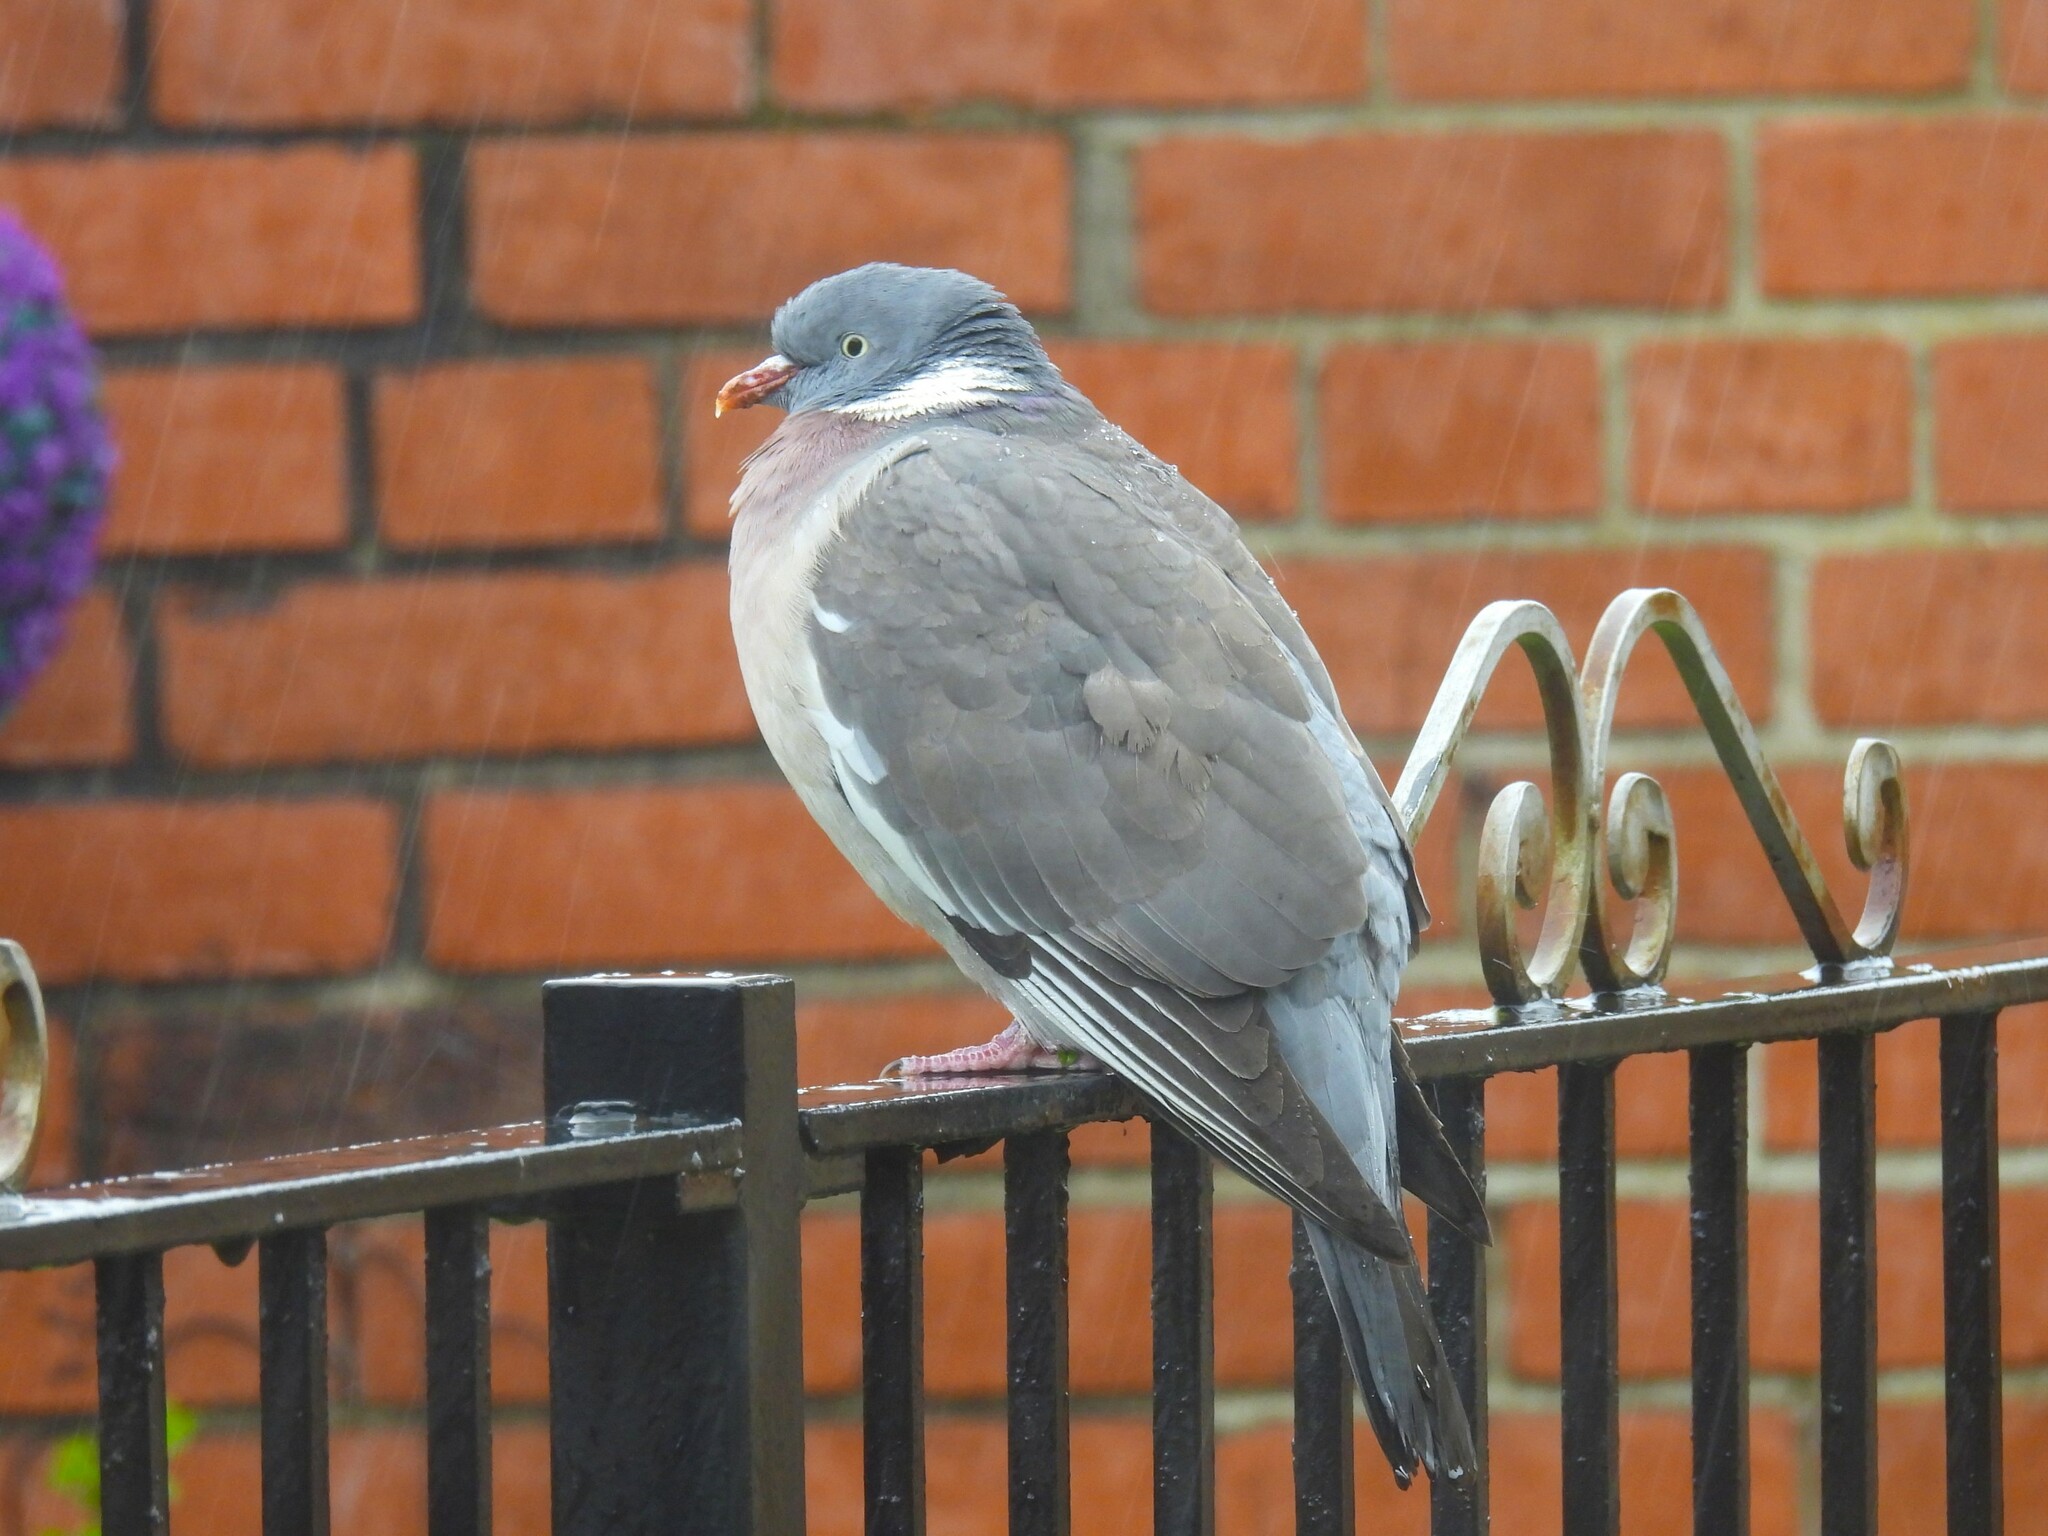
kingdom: Animalia
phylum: Chordata
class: Aves
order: Columbiformes
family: Columbidae
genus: Columba
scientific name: Columba palumbus
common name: Common wood pigeon
